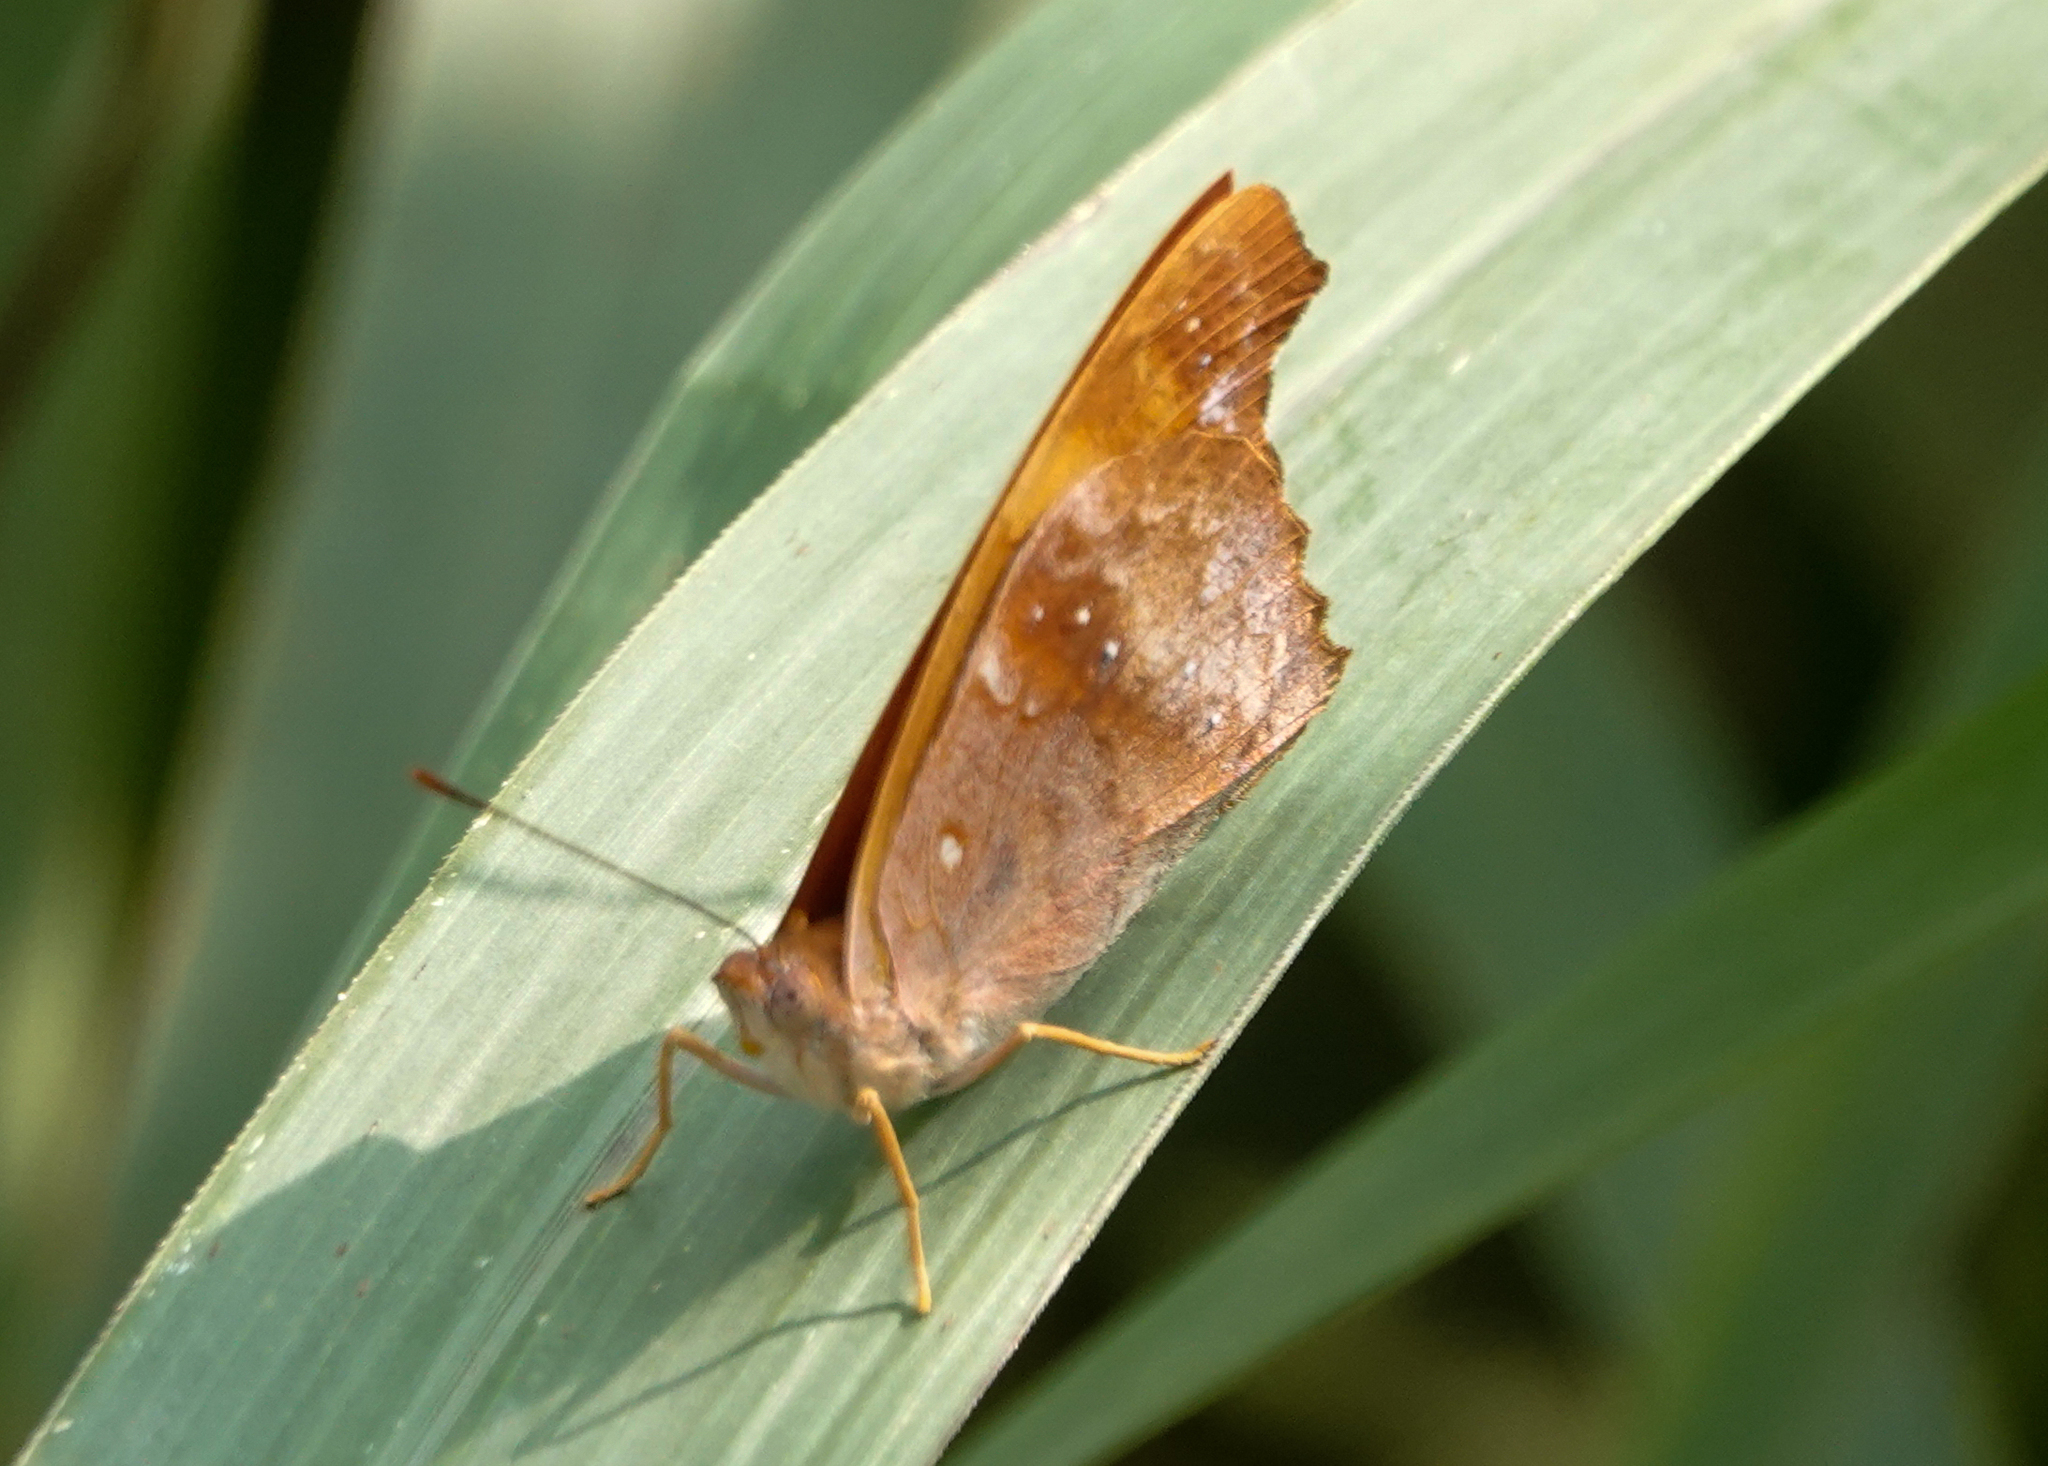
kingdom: Animalia
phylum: Arthropoda
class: Insecta
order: Lepidoptera
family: Nymphalidae
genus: Temenis
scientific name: Temenis laothoe
